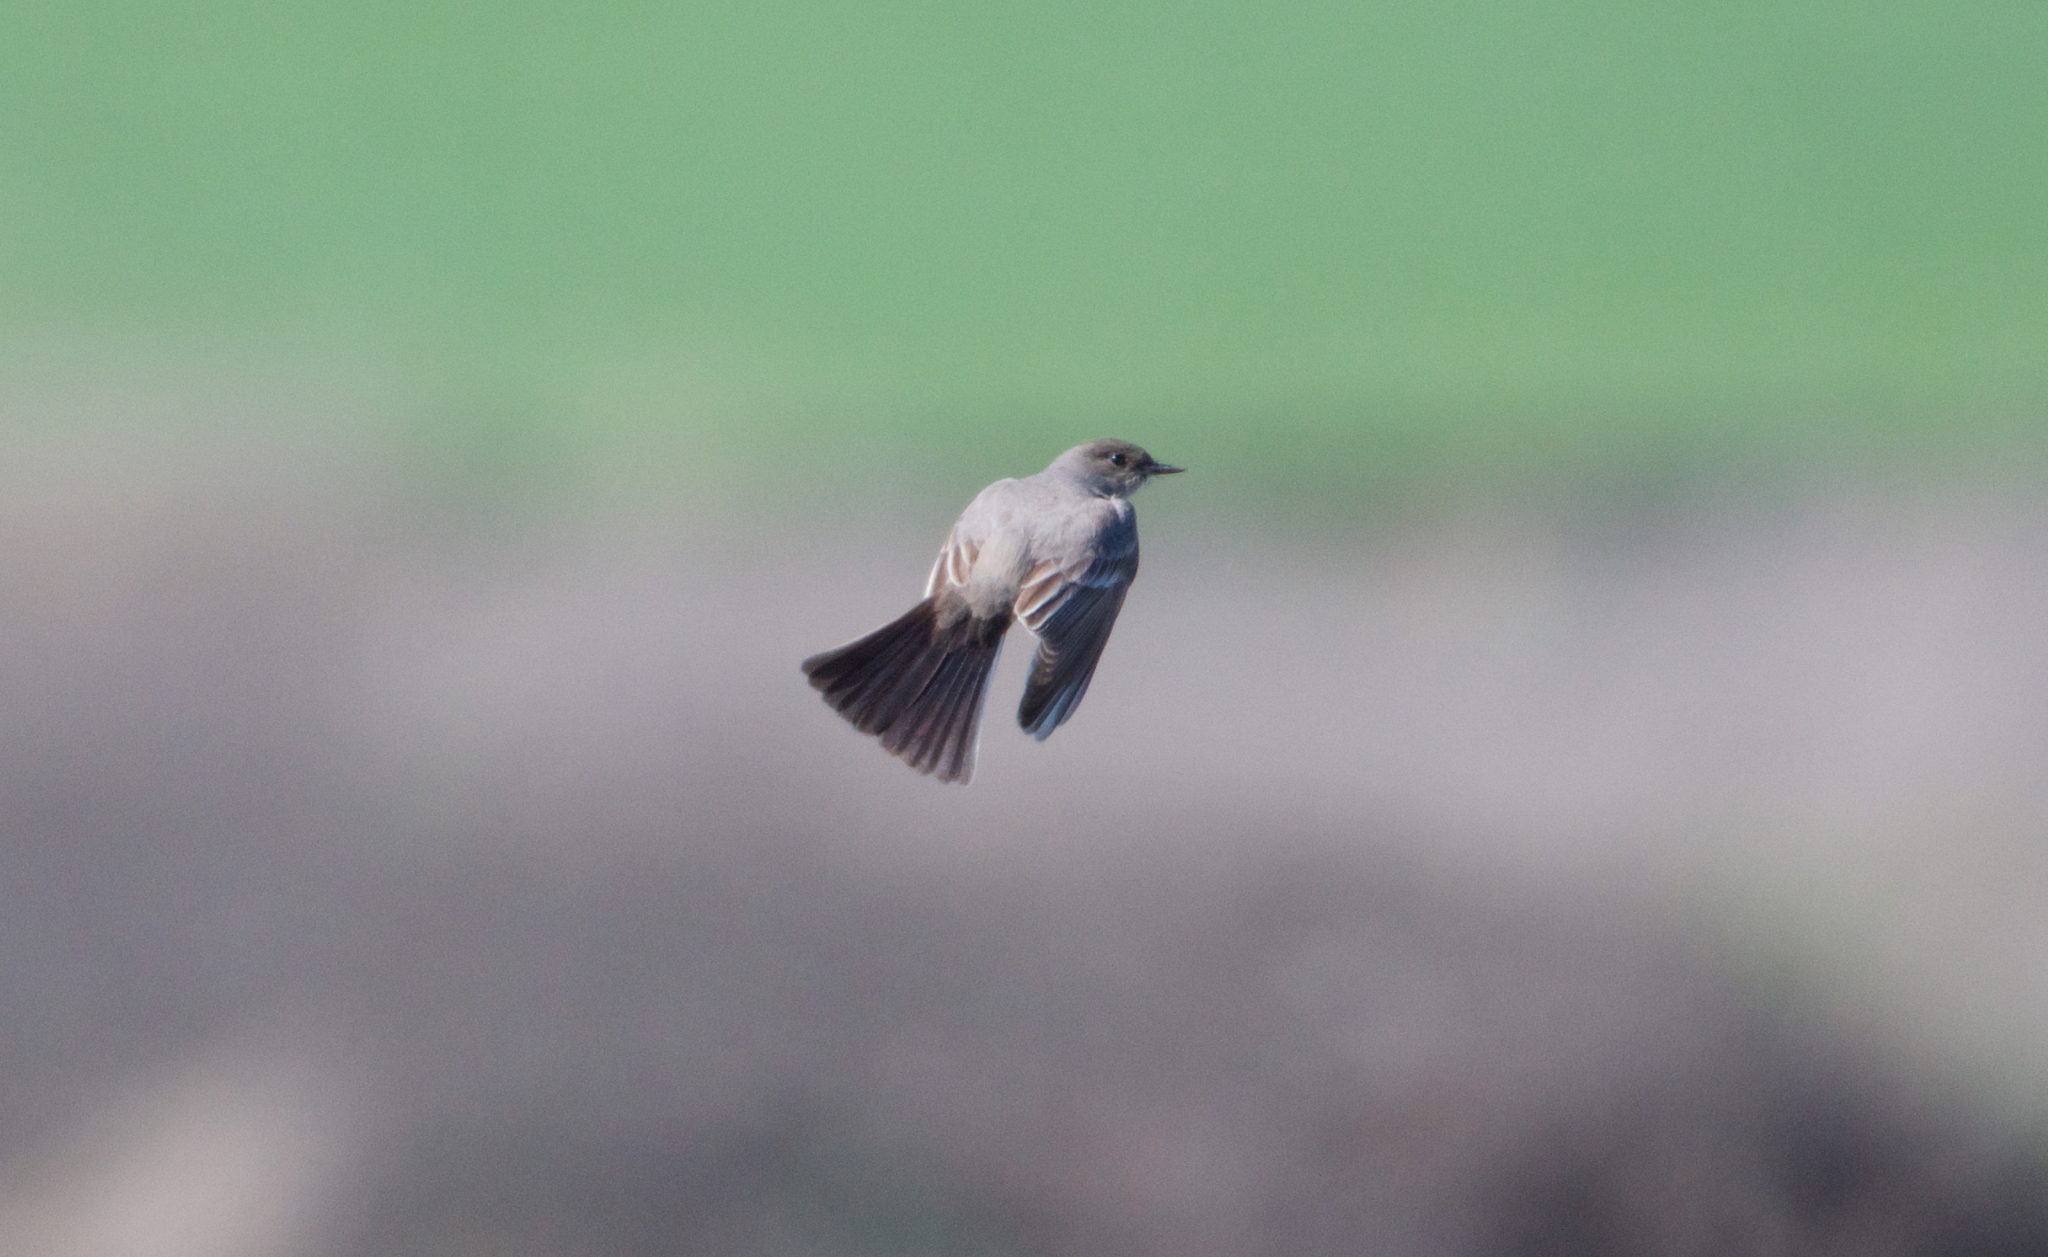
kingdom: Animalia
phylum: Chordata
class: Aves
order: Passeriformes
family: Tyrannidae
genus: Sayornis
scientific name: Sayornis saya
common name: Say's phoebe
